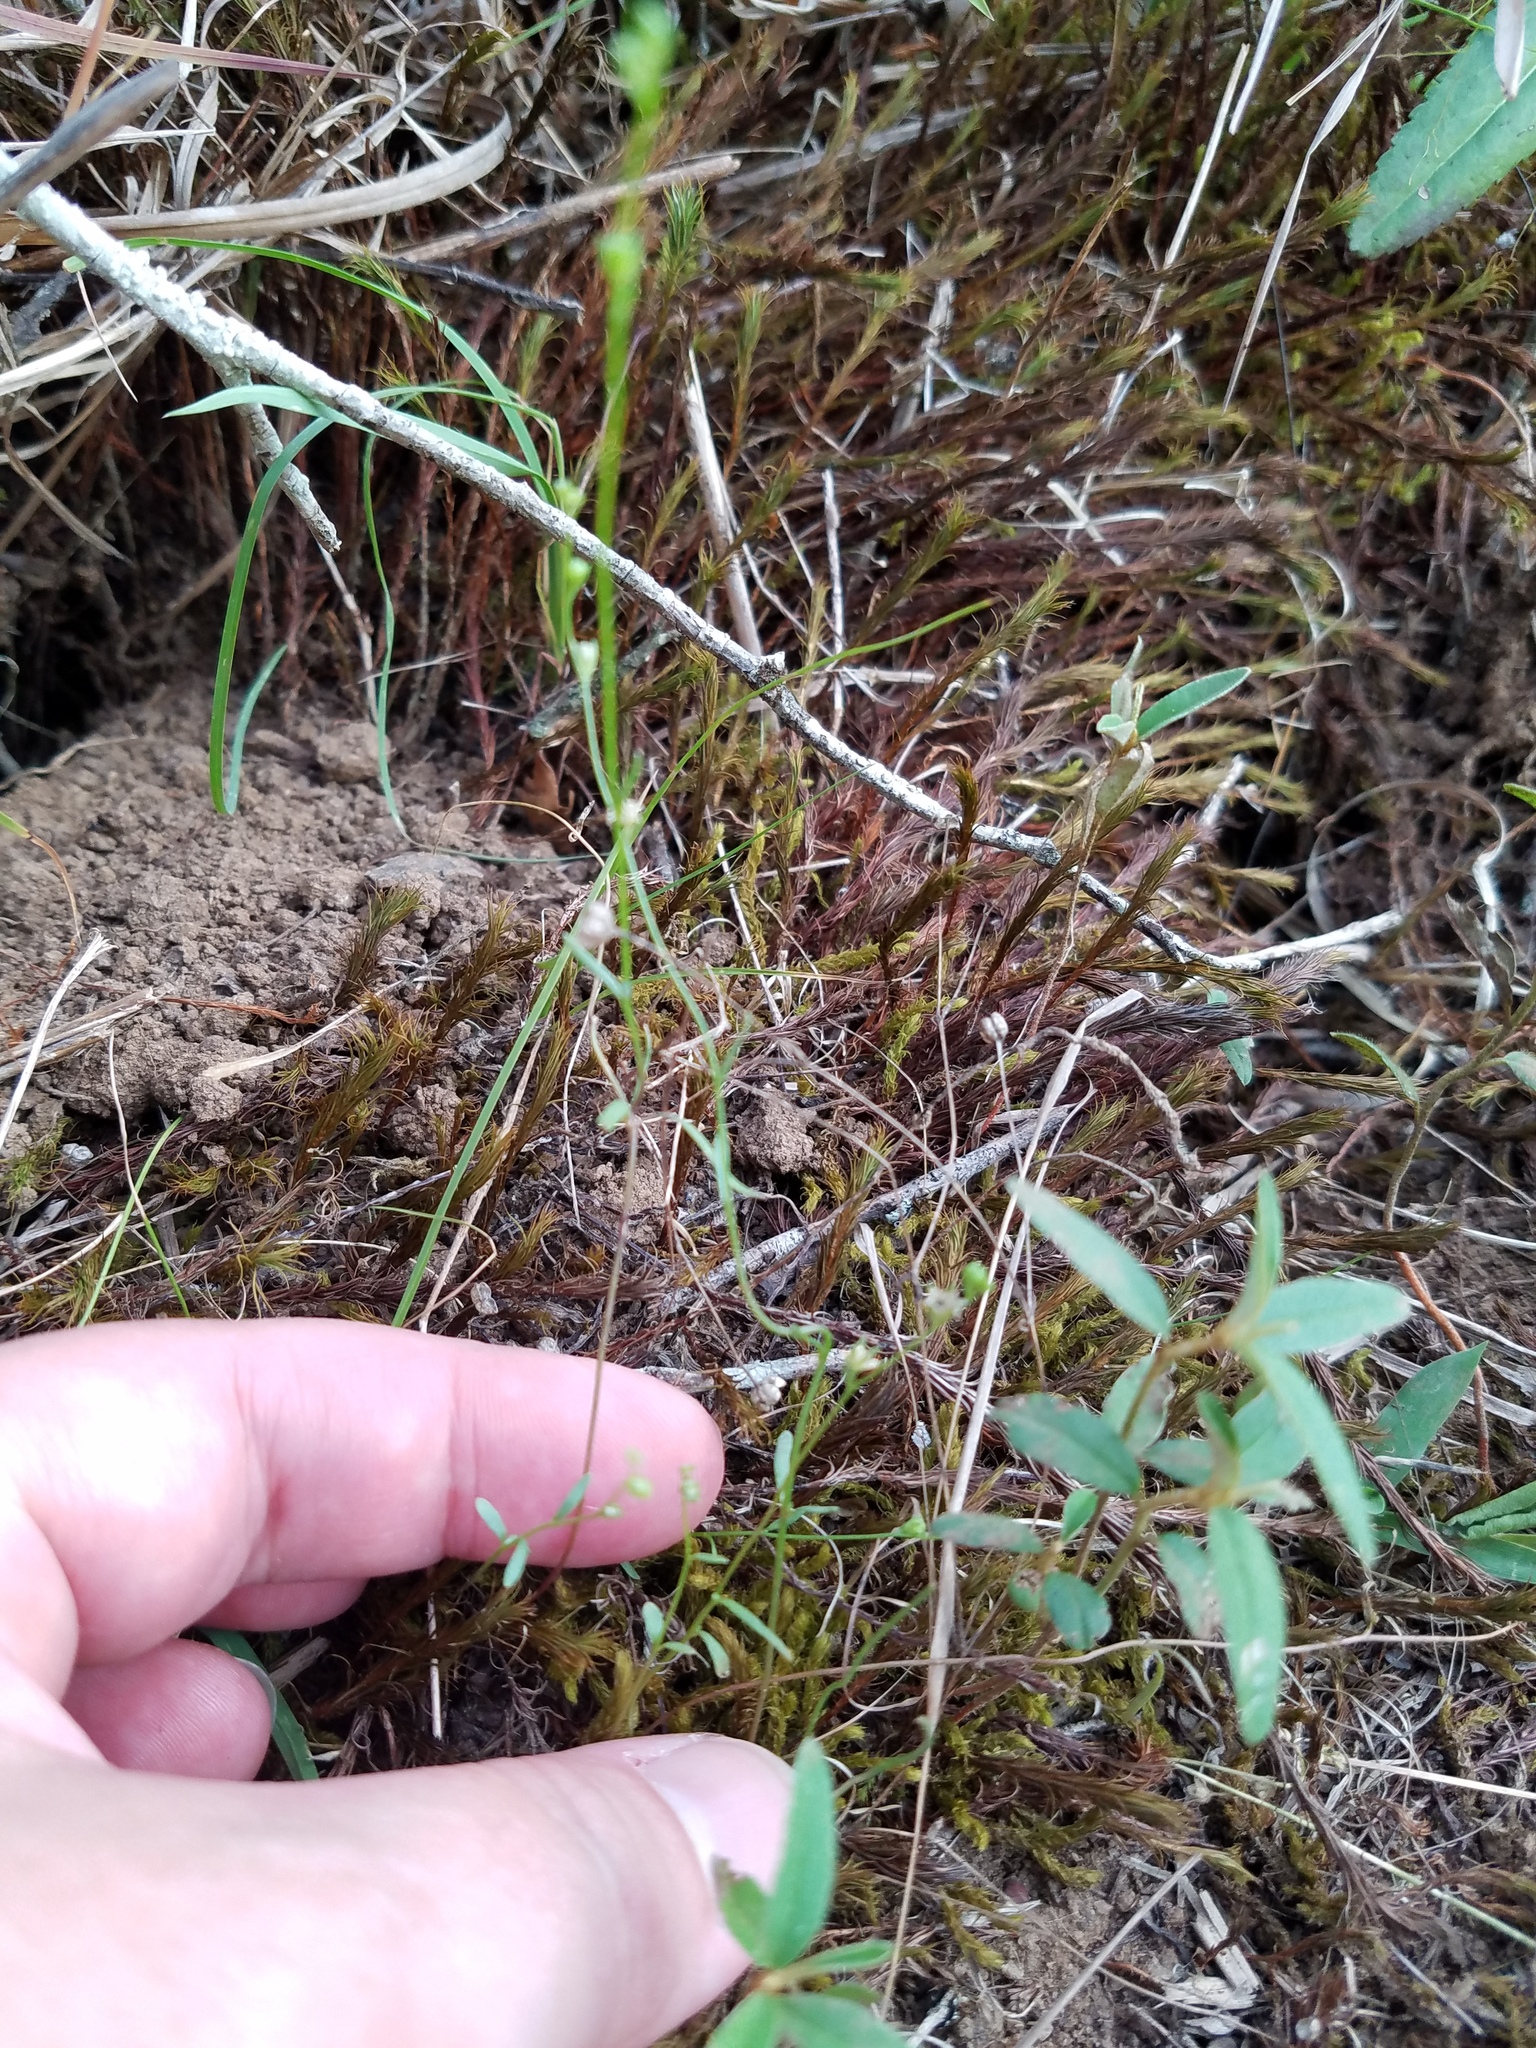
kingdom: Plantae
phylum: Tracheophyta
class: Magnoliopsida
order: Caryophyllales
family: Caryophyllaceae
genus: Geocarpon
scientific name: Geocarpon uniflorum
